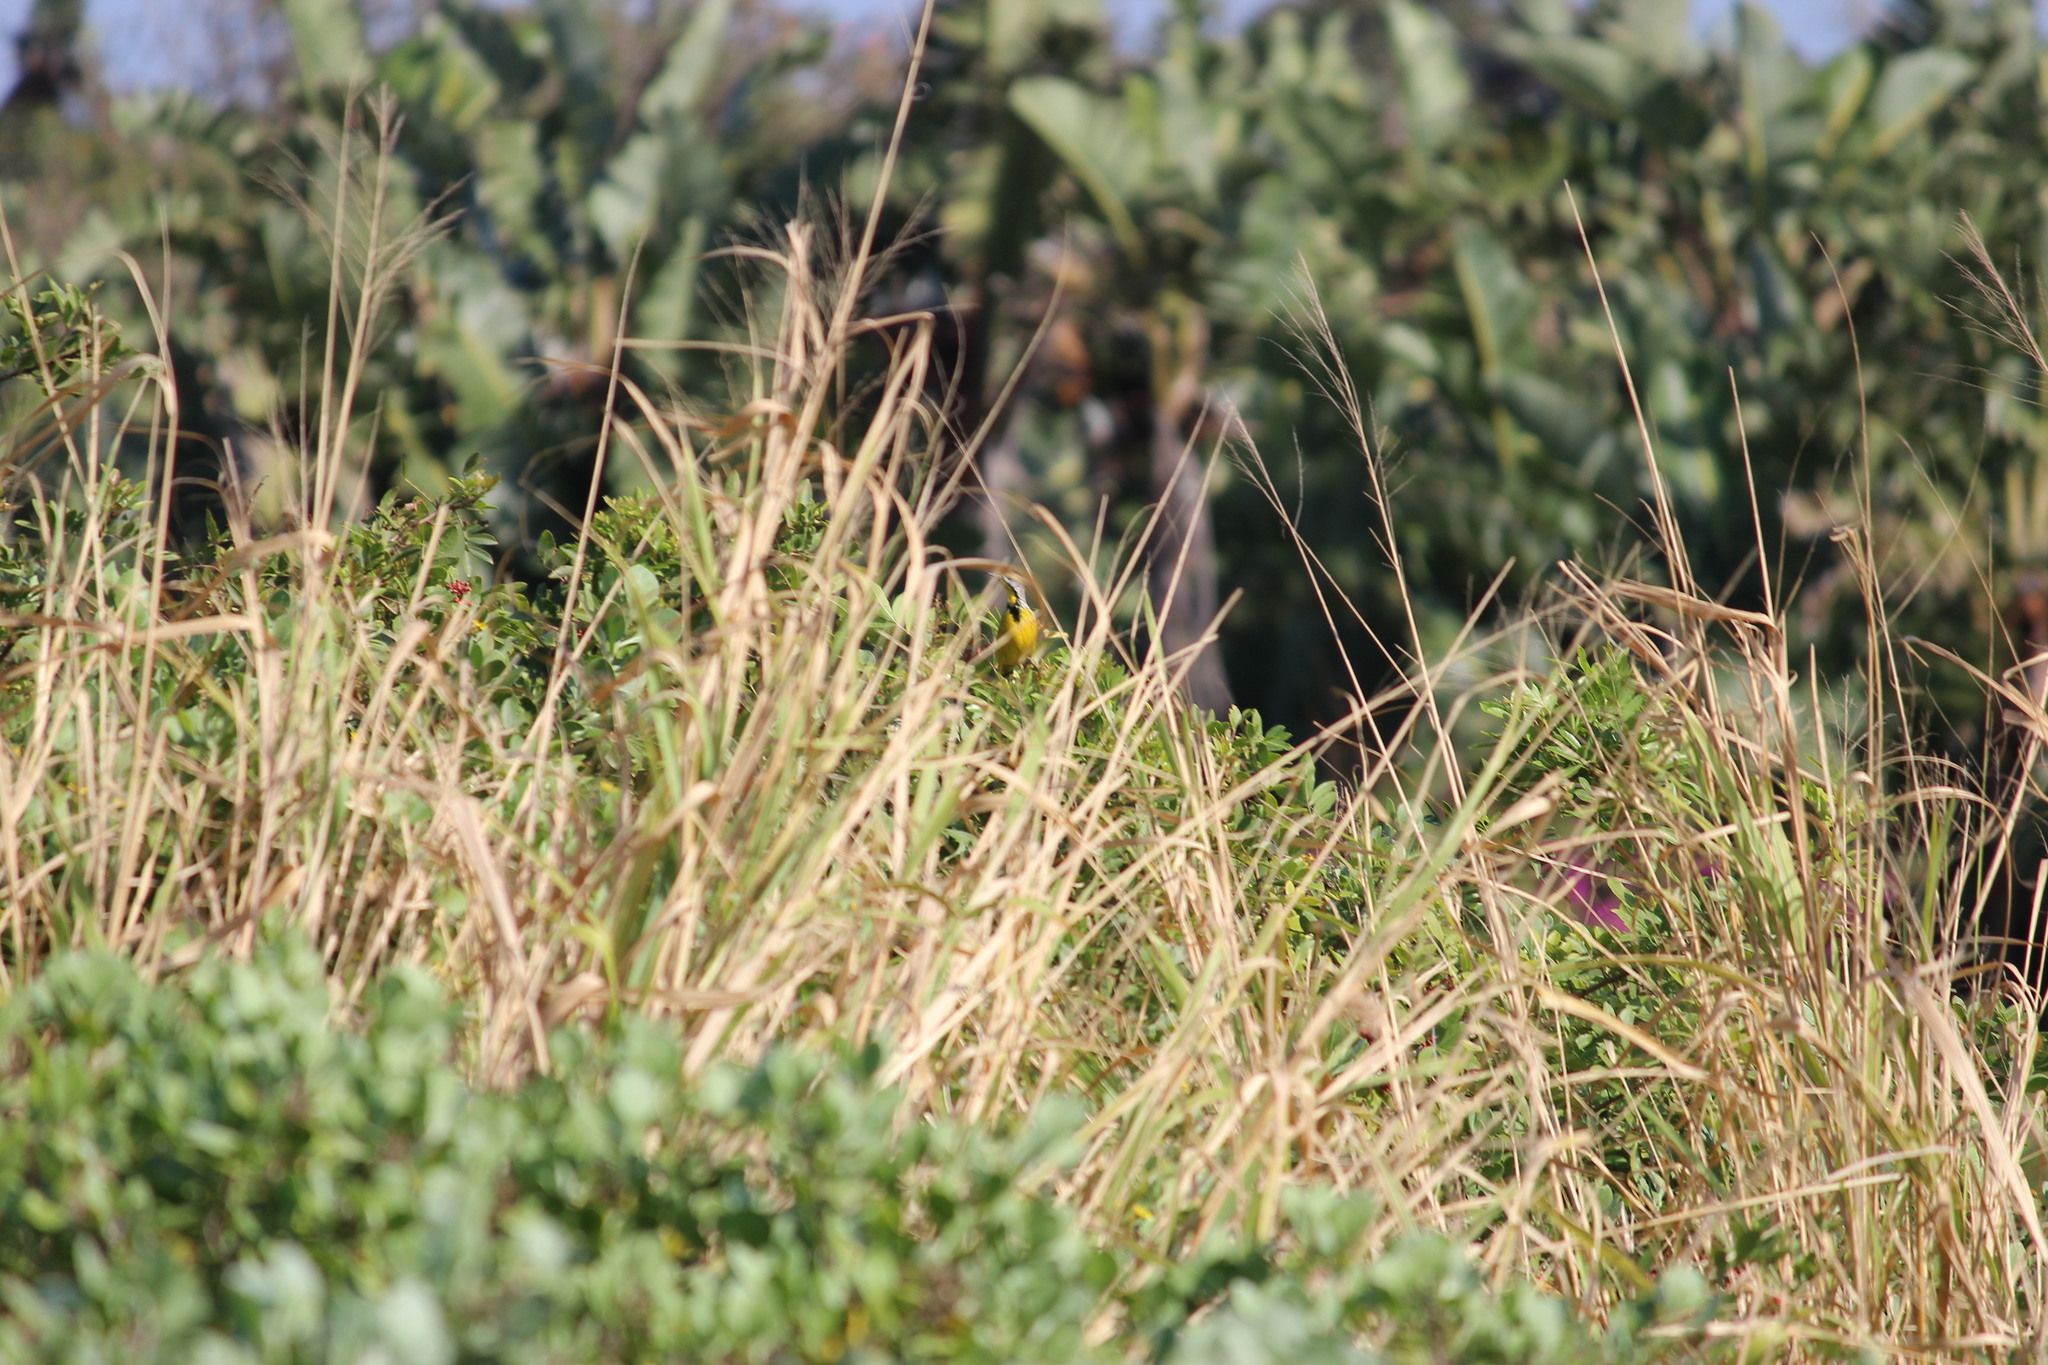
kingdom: Animalia
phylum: Chordata
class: Aves
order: Passeriformes
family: Motacillidae
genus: Macronyx
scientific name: Macronyx croceus
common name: Yellow-throated longclaw
